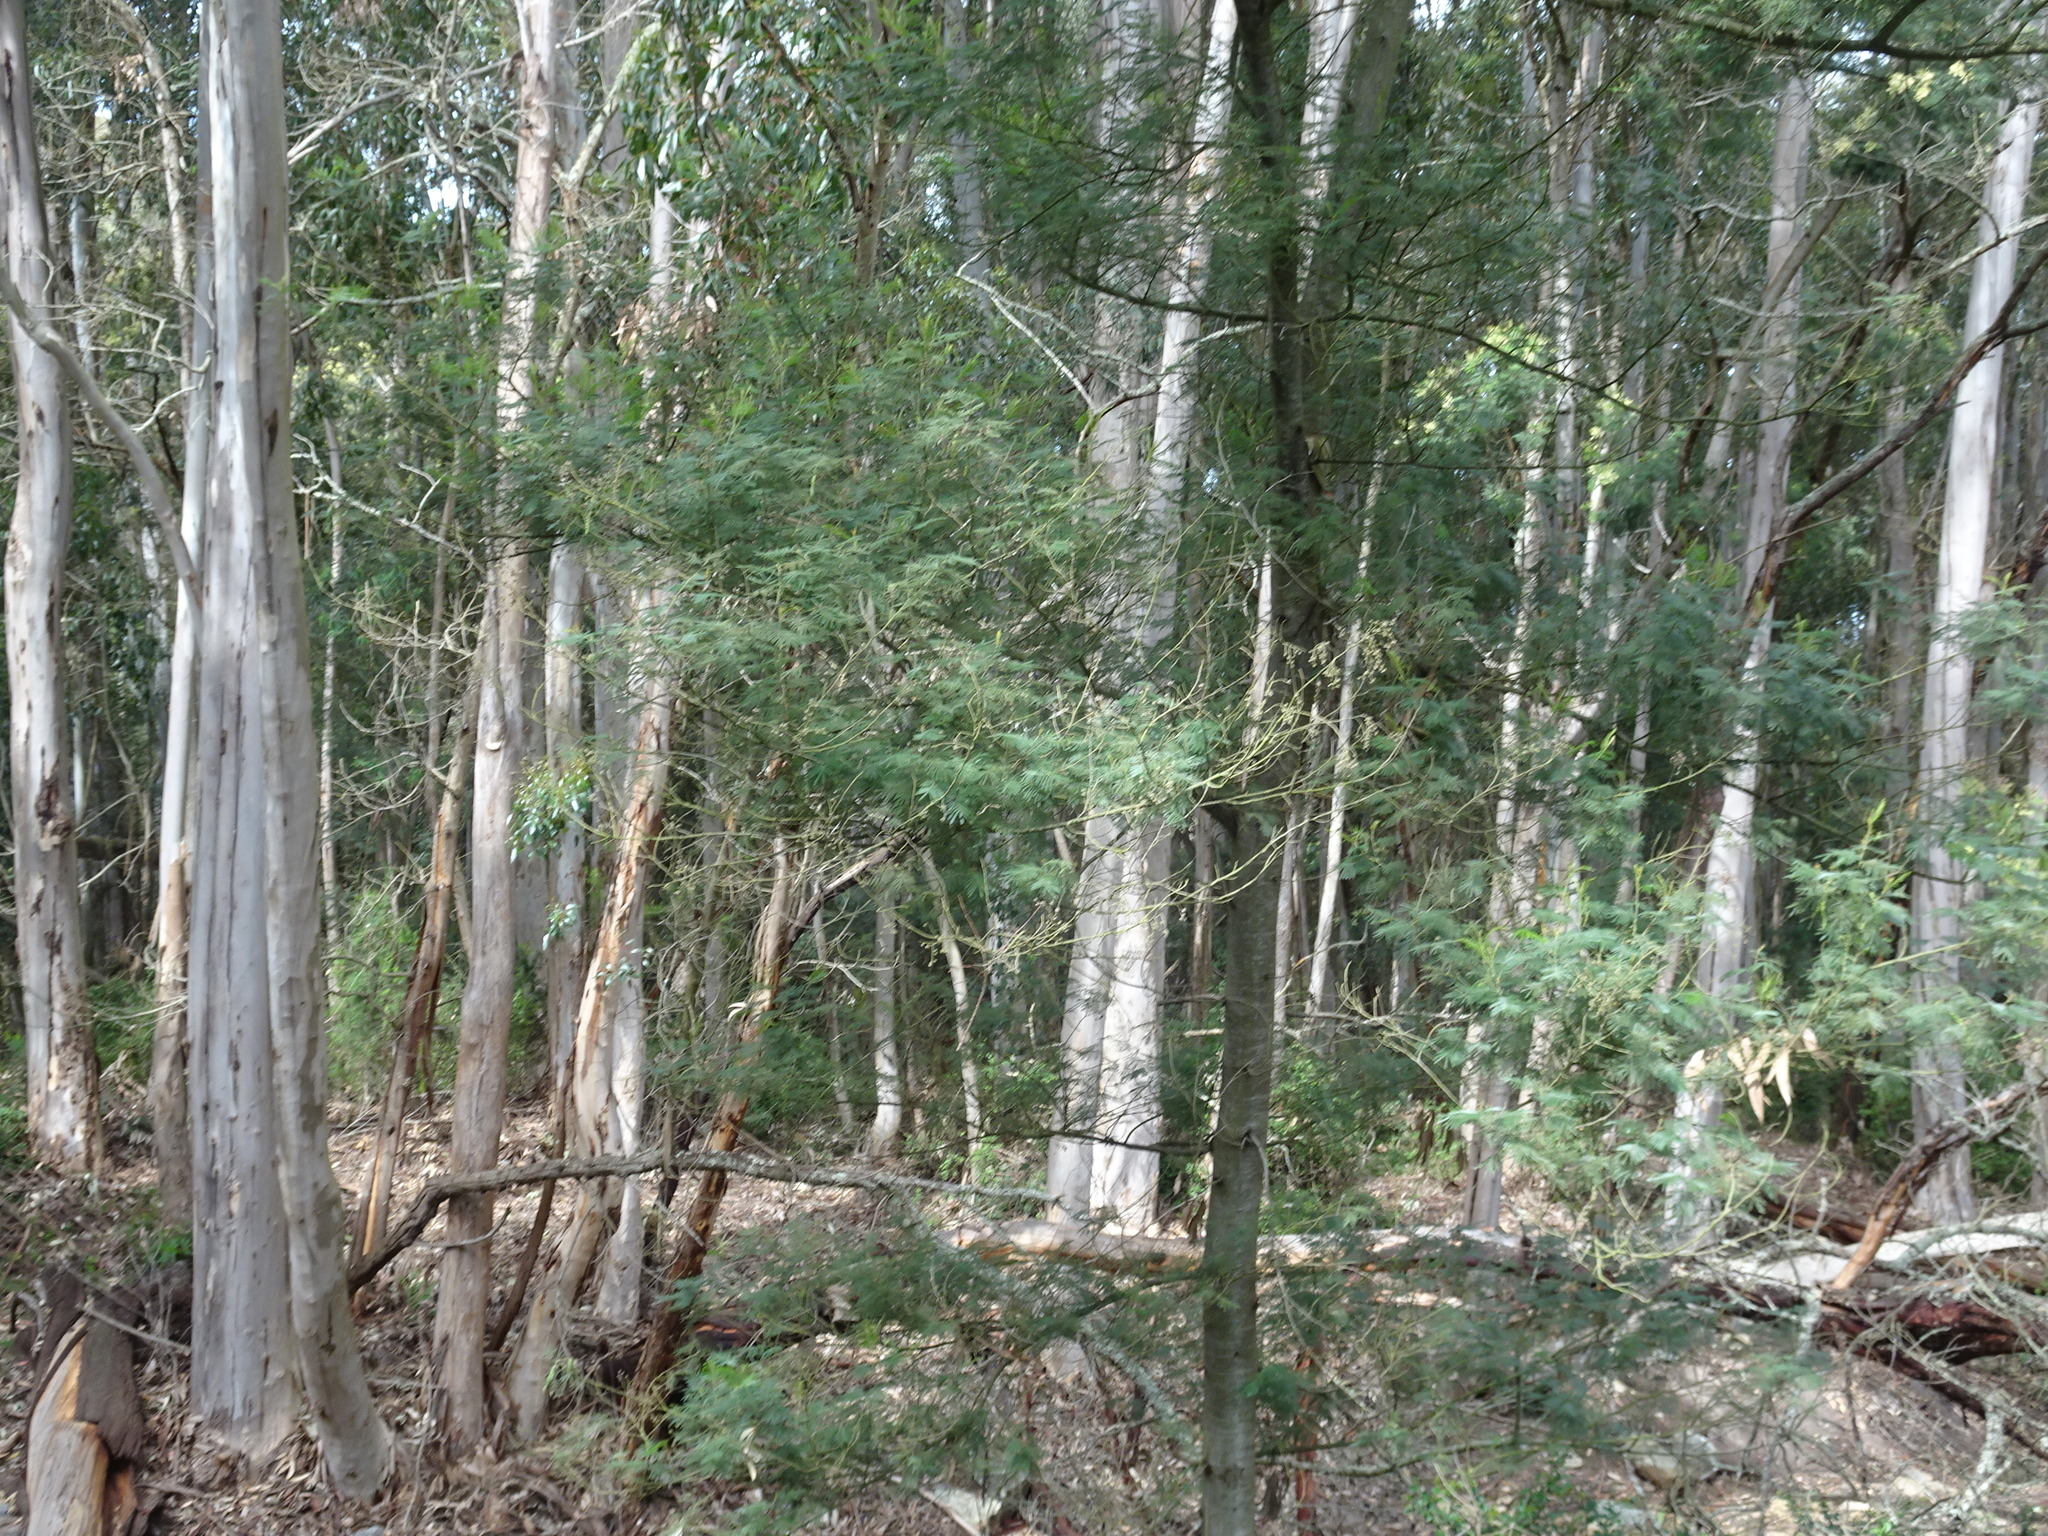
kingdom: Plantae
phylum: Tracheophyta
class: Magnoliopsida
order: Fabales
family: Fabaceae
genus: Acacia
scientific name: Acacia mearnsii
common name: Black wattle
